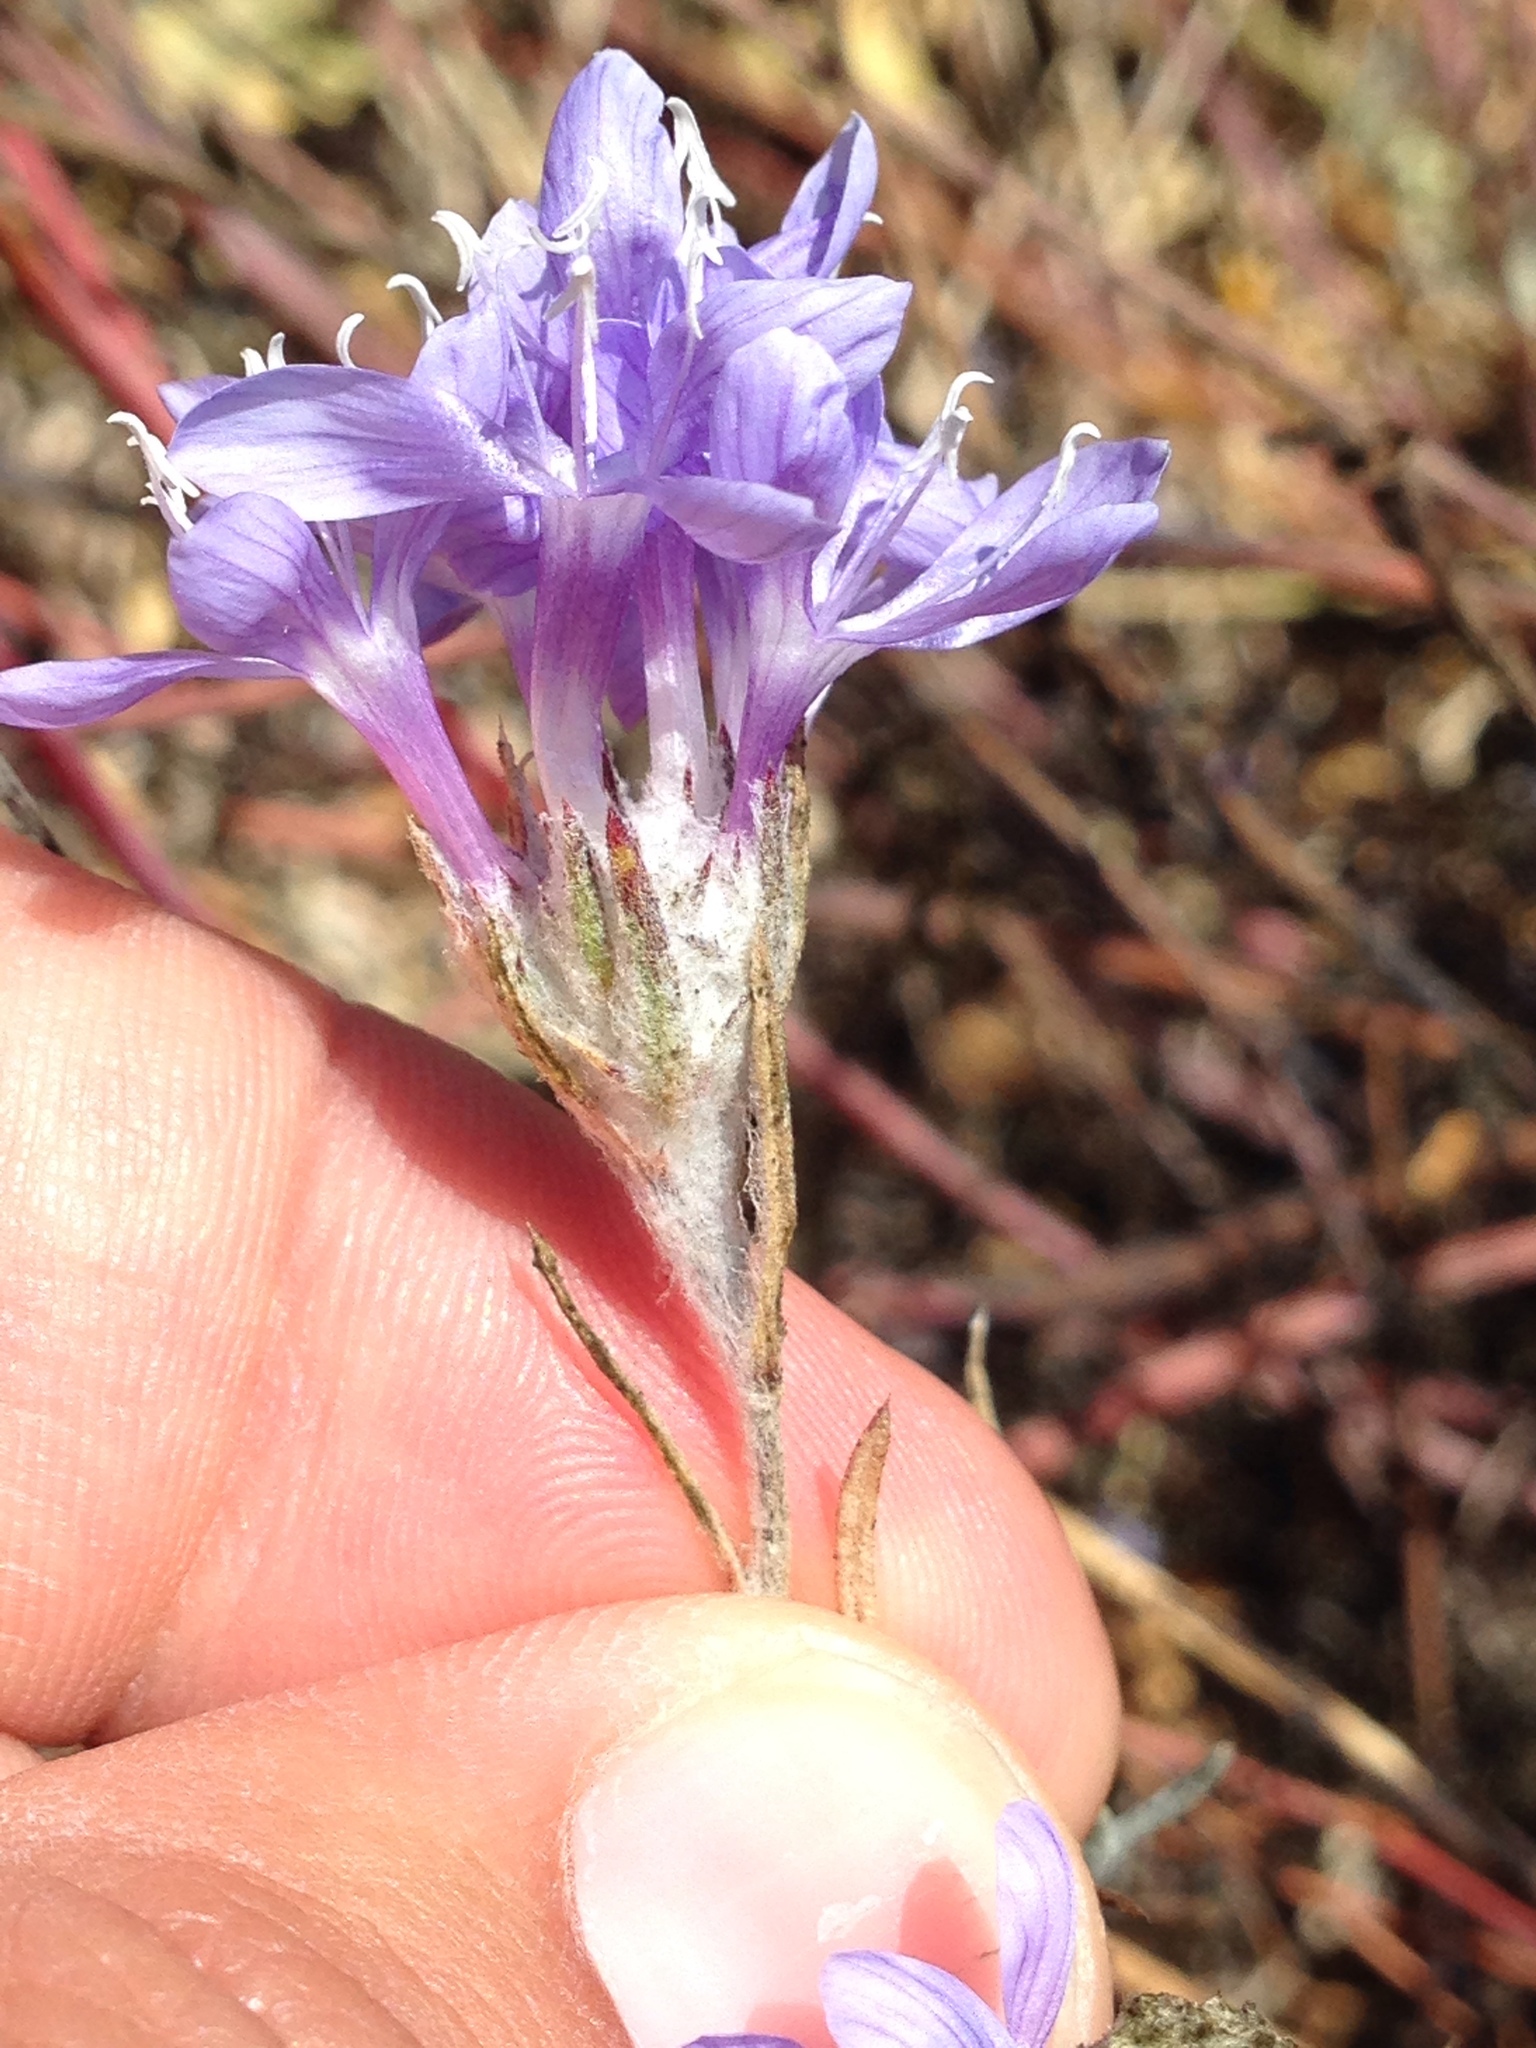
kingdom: Plantae
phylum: Tracheophyta
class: Magnoliopsida
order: Ericales
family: Polemoniaceae
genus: Eriastrum
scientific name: Eriastrum densifolium
